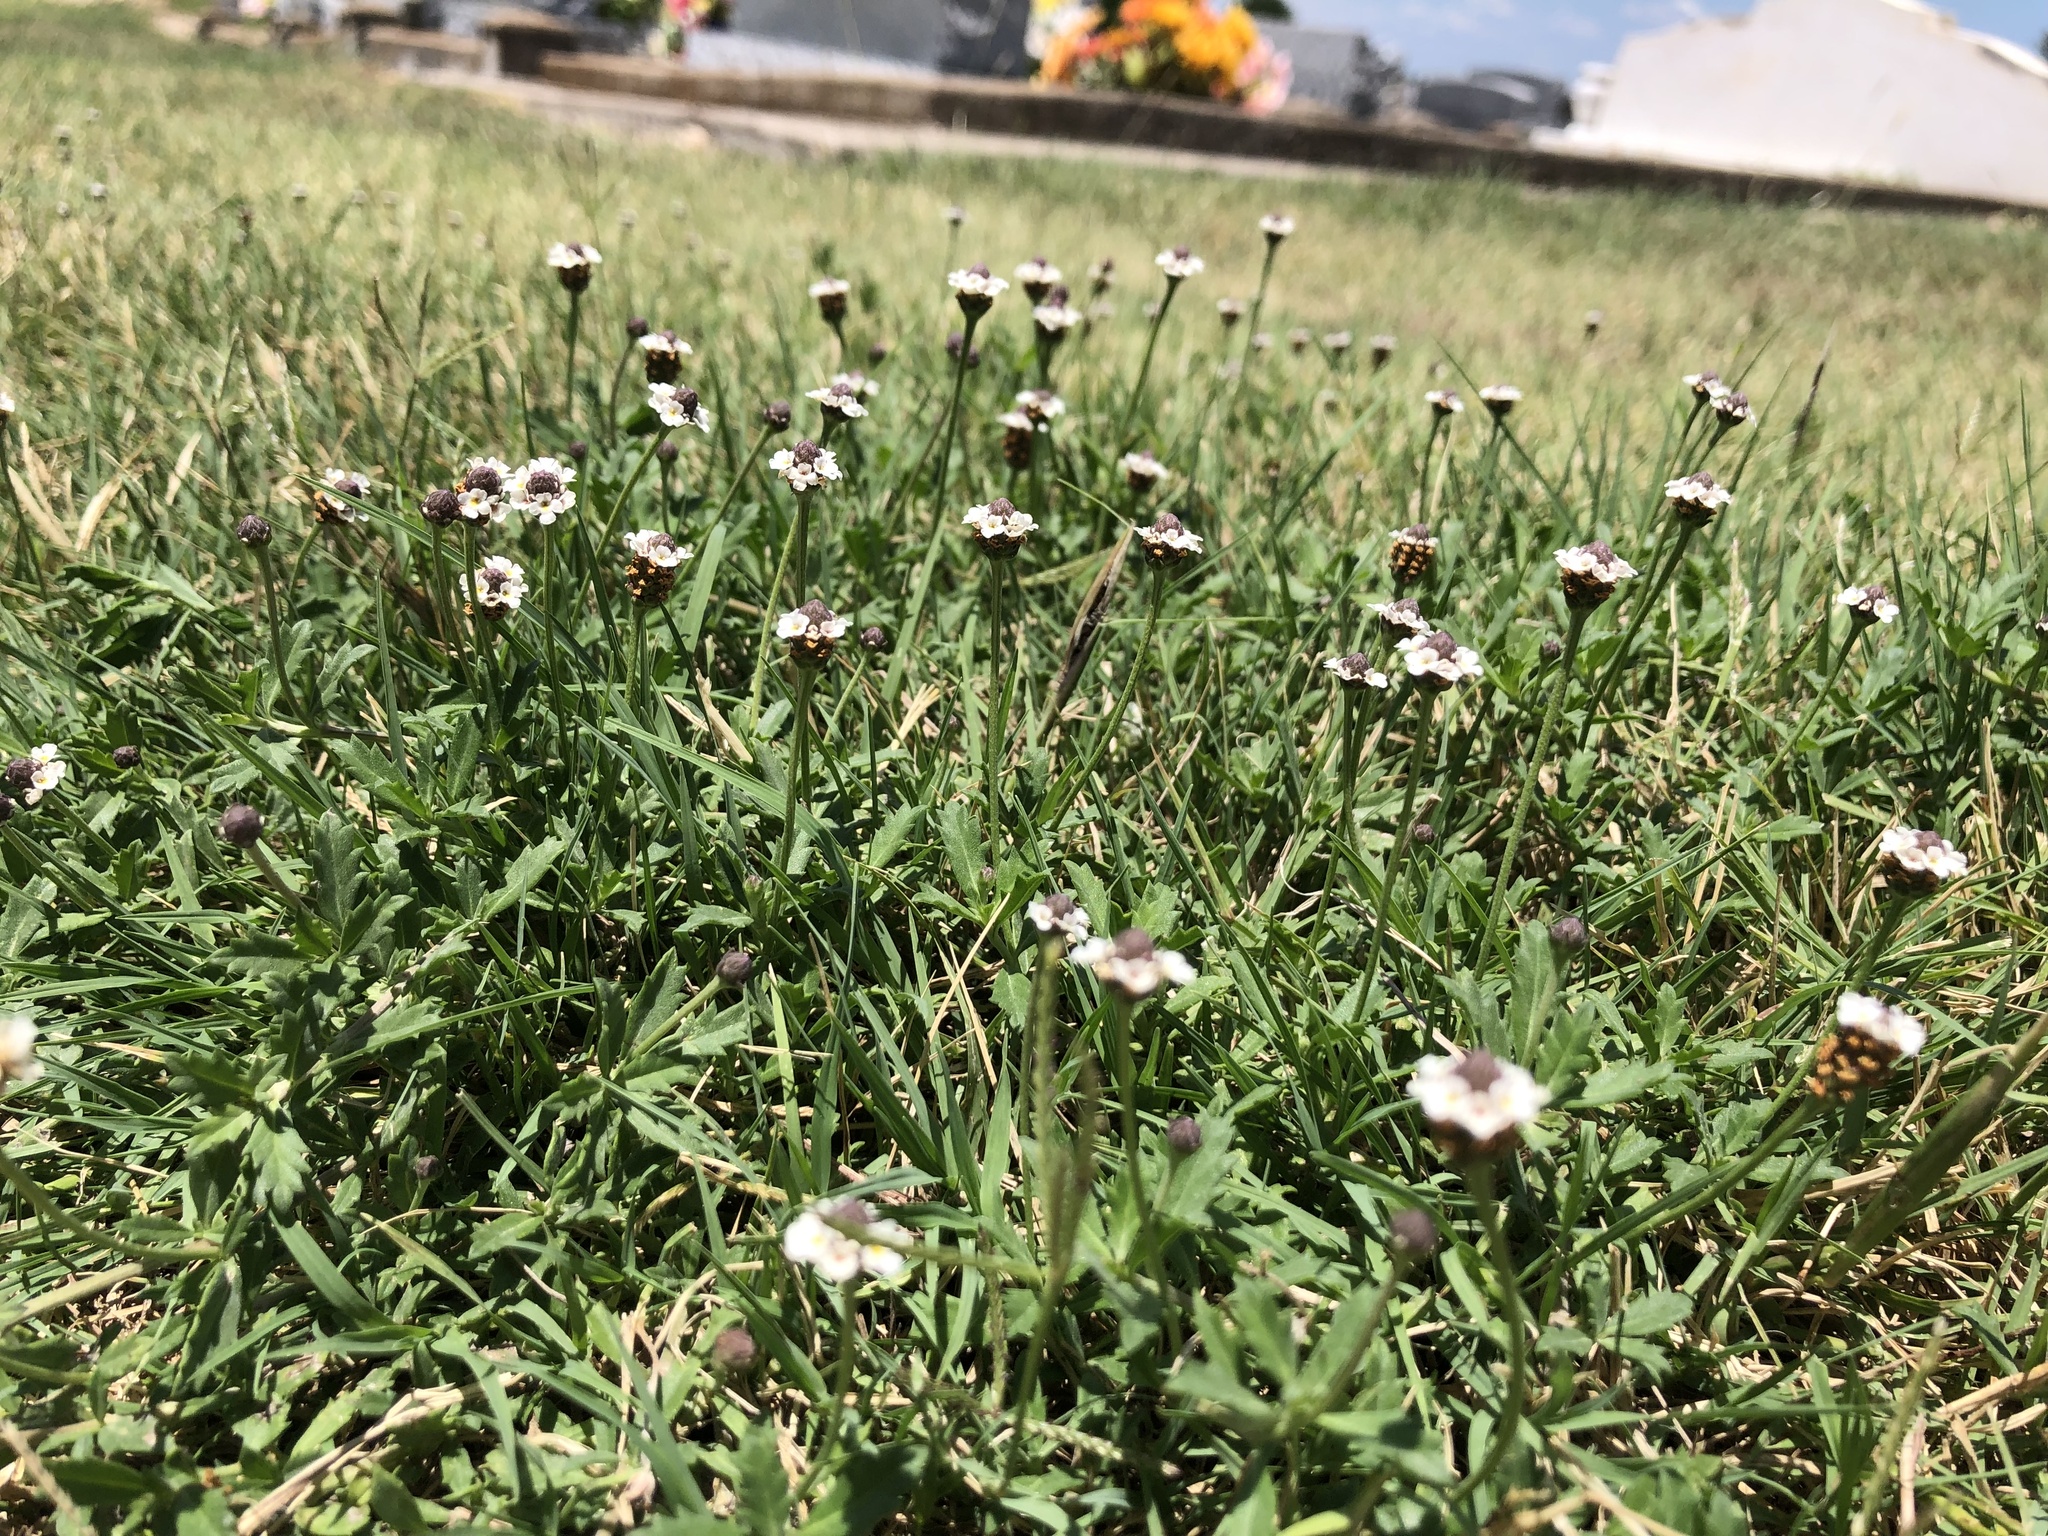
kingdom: Plantae
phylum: Tracheophyta
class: Magnoliopsida
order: Lamiales
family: Verbenaceae
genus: Phyla
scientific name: Phyla nodiflora
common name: Frogfruit
